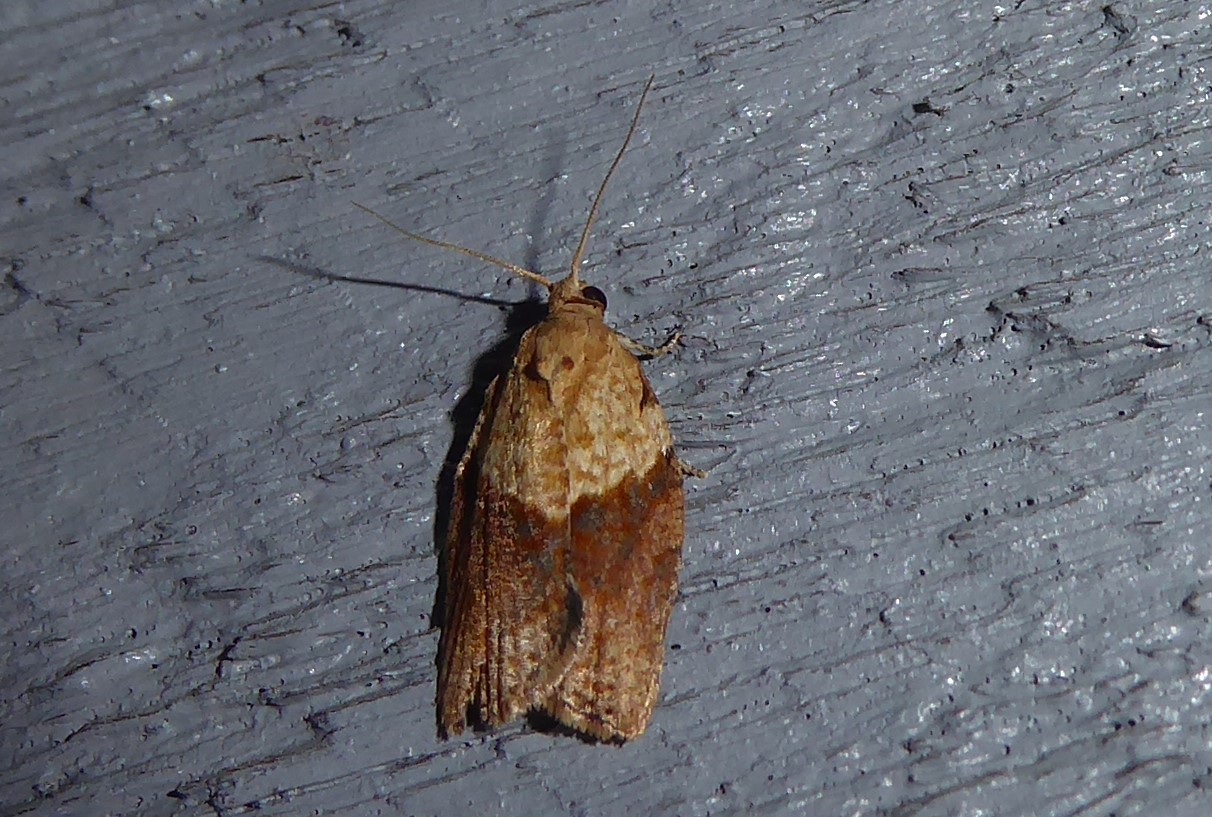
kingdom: Animalia
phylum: Arthropoda
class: Insecta
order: Lepidoptera
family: Tortricidae
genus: Epiphyas
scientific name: Epiphyas postvittana
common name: Light brown apple moth
